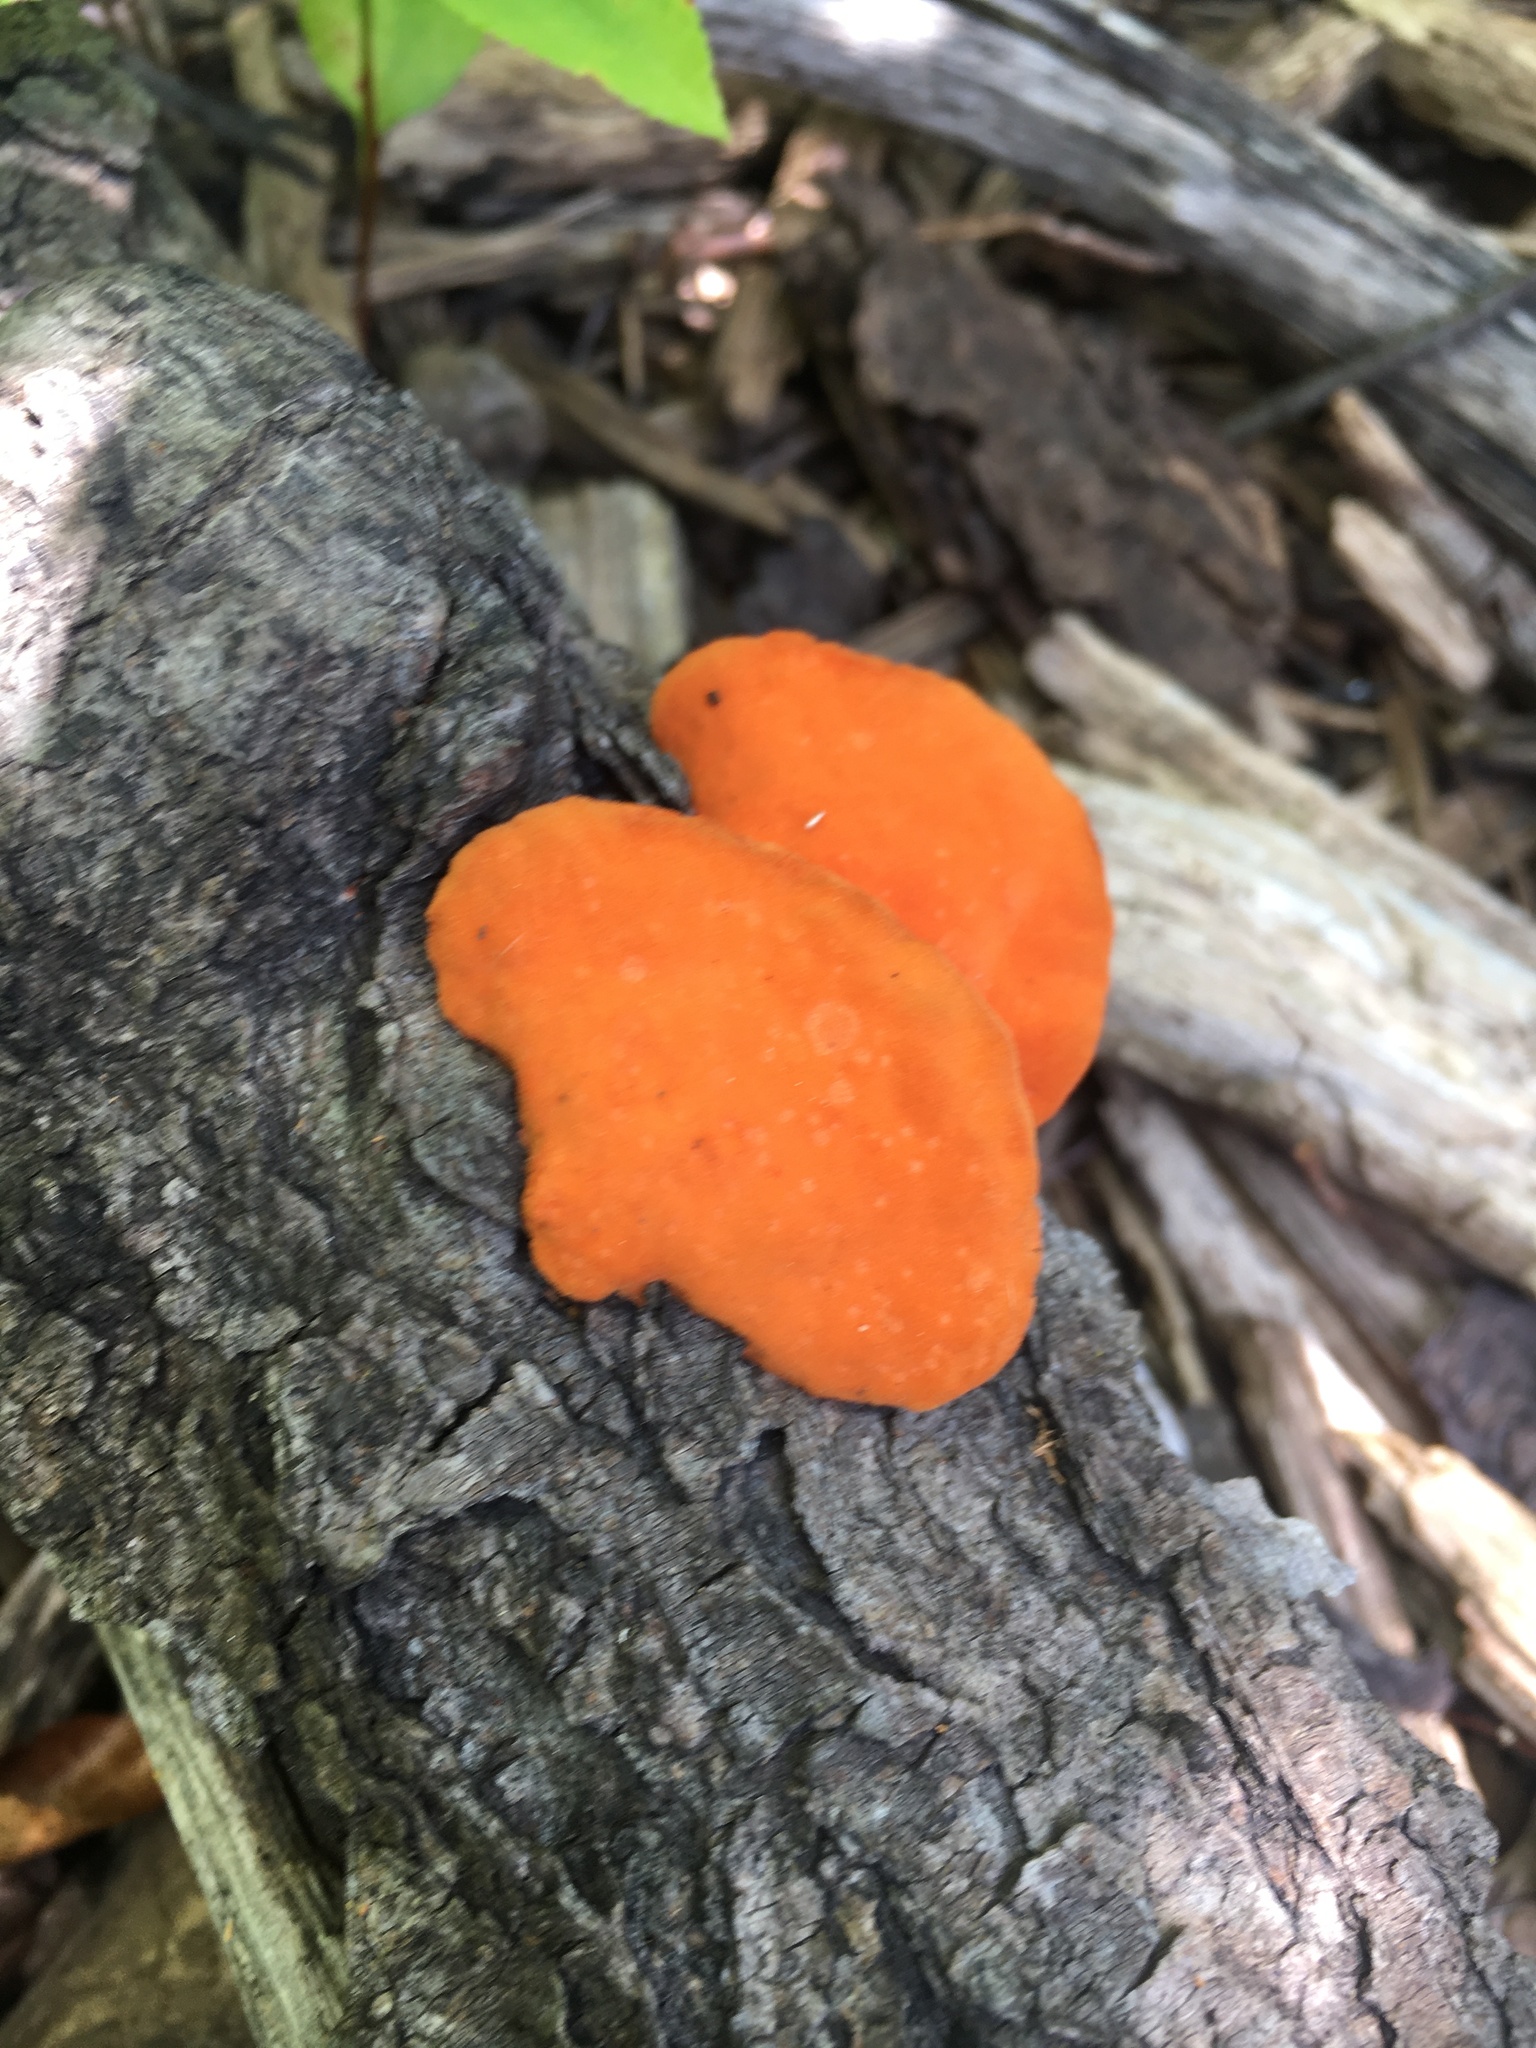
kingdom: Fungi
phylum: Basidiomycota
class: Agaricomycetes
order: Polyporales
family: Polyporaceae
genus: Trametes
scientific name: Trametes cinnabarina
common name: Northern cinnabar polypore
